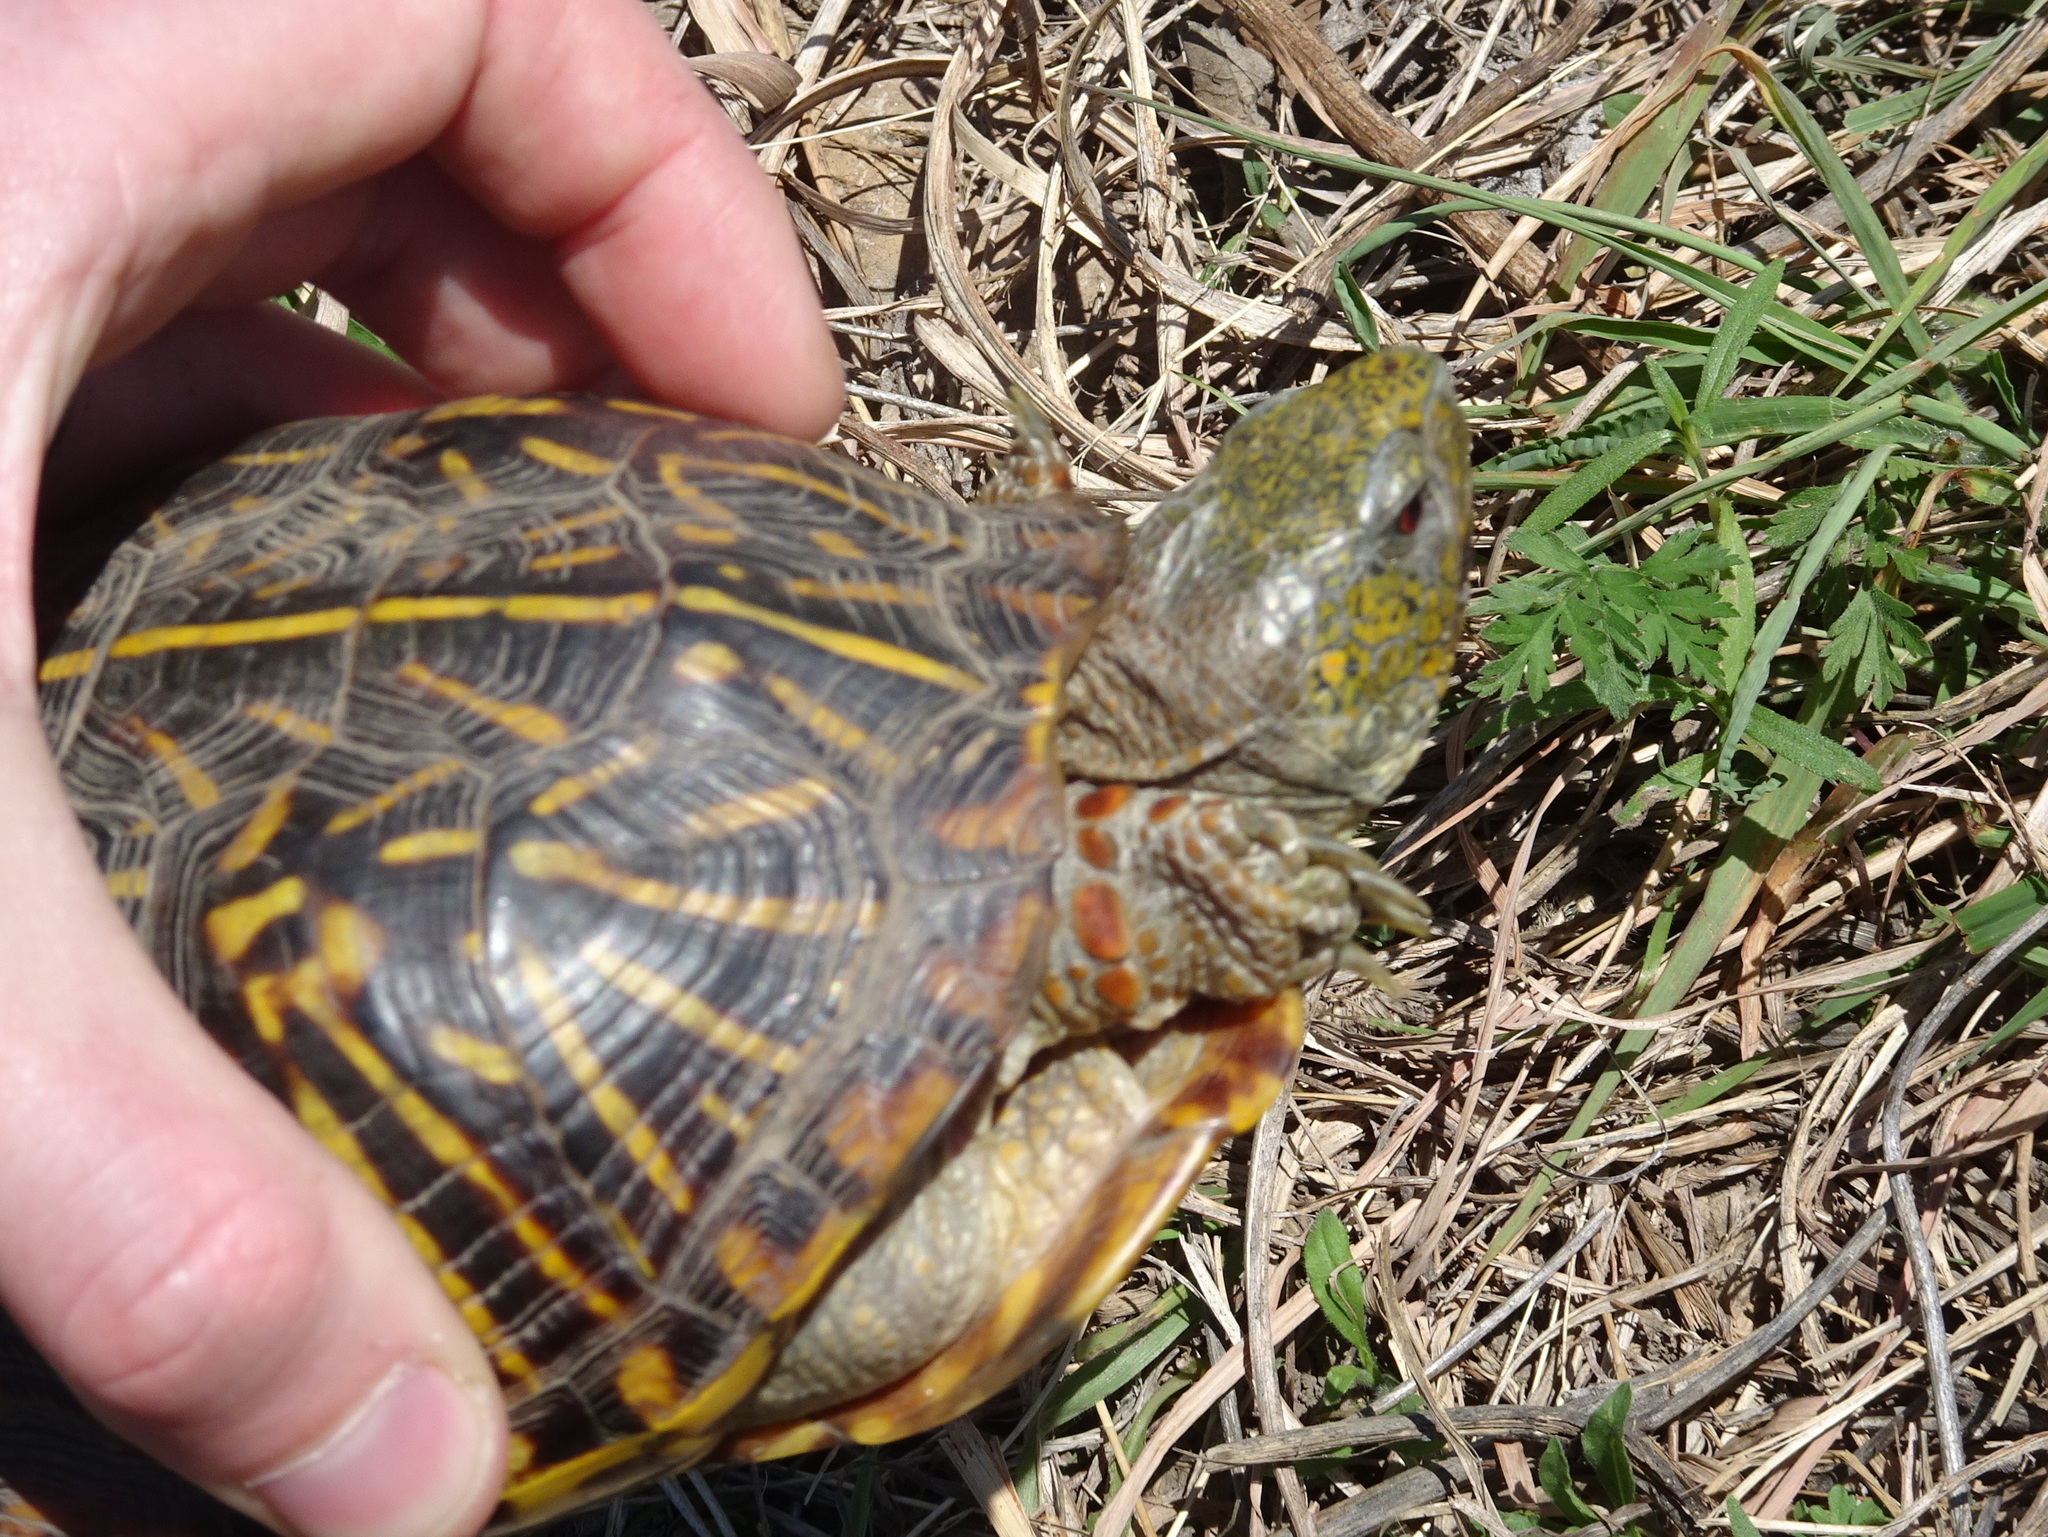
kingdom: Animalia
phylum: Chordata
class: Testudines
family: Emydidae
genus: Terrapene
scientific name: Terrapene ornata
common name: Western box turtle
